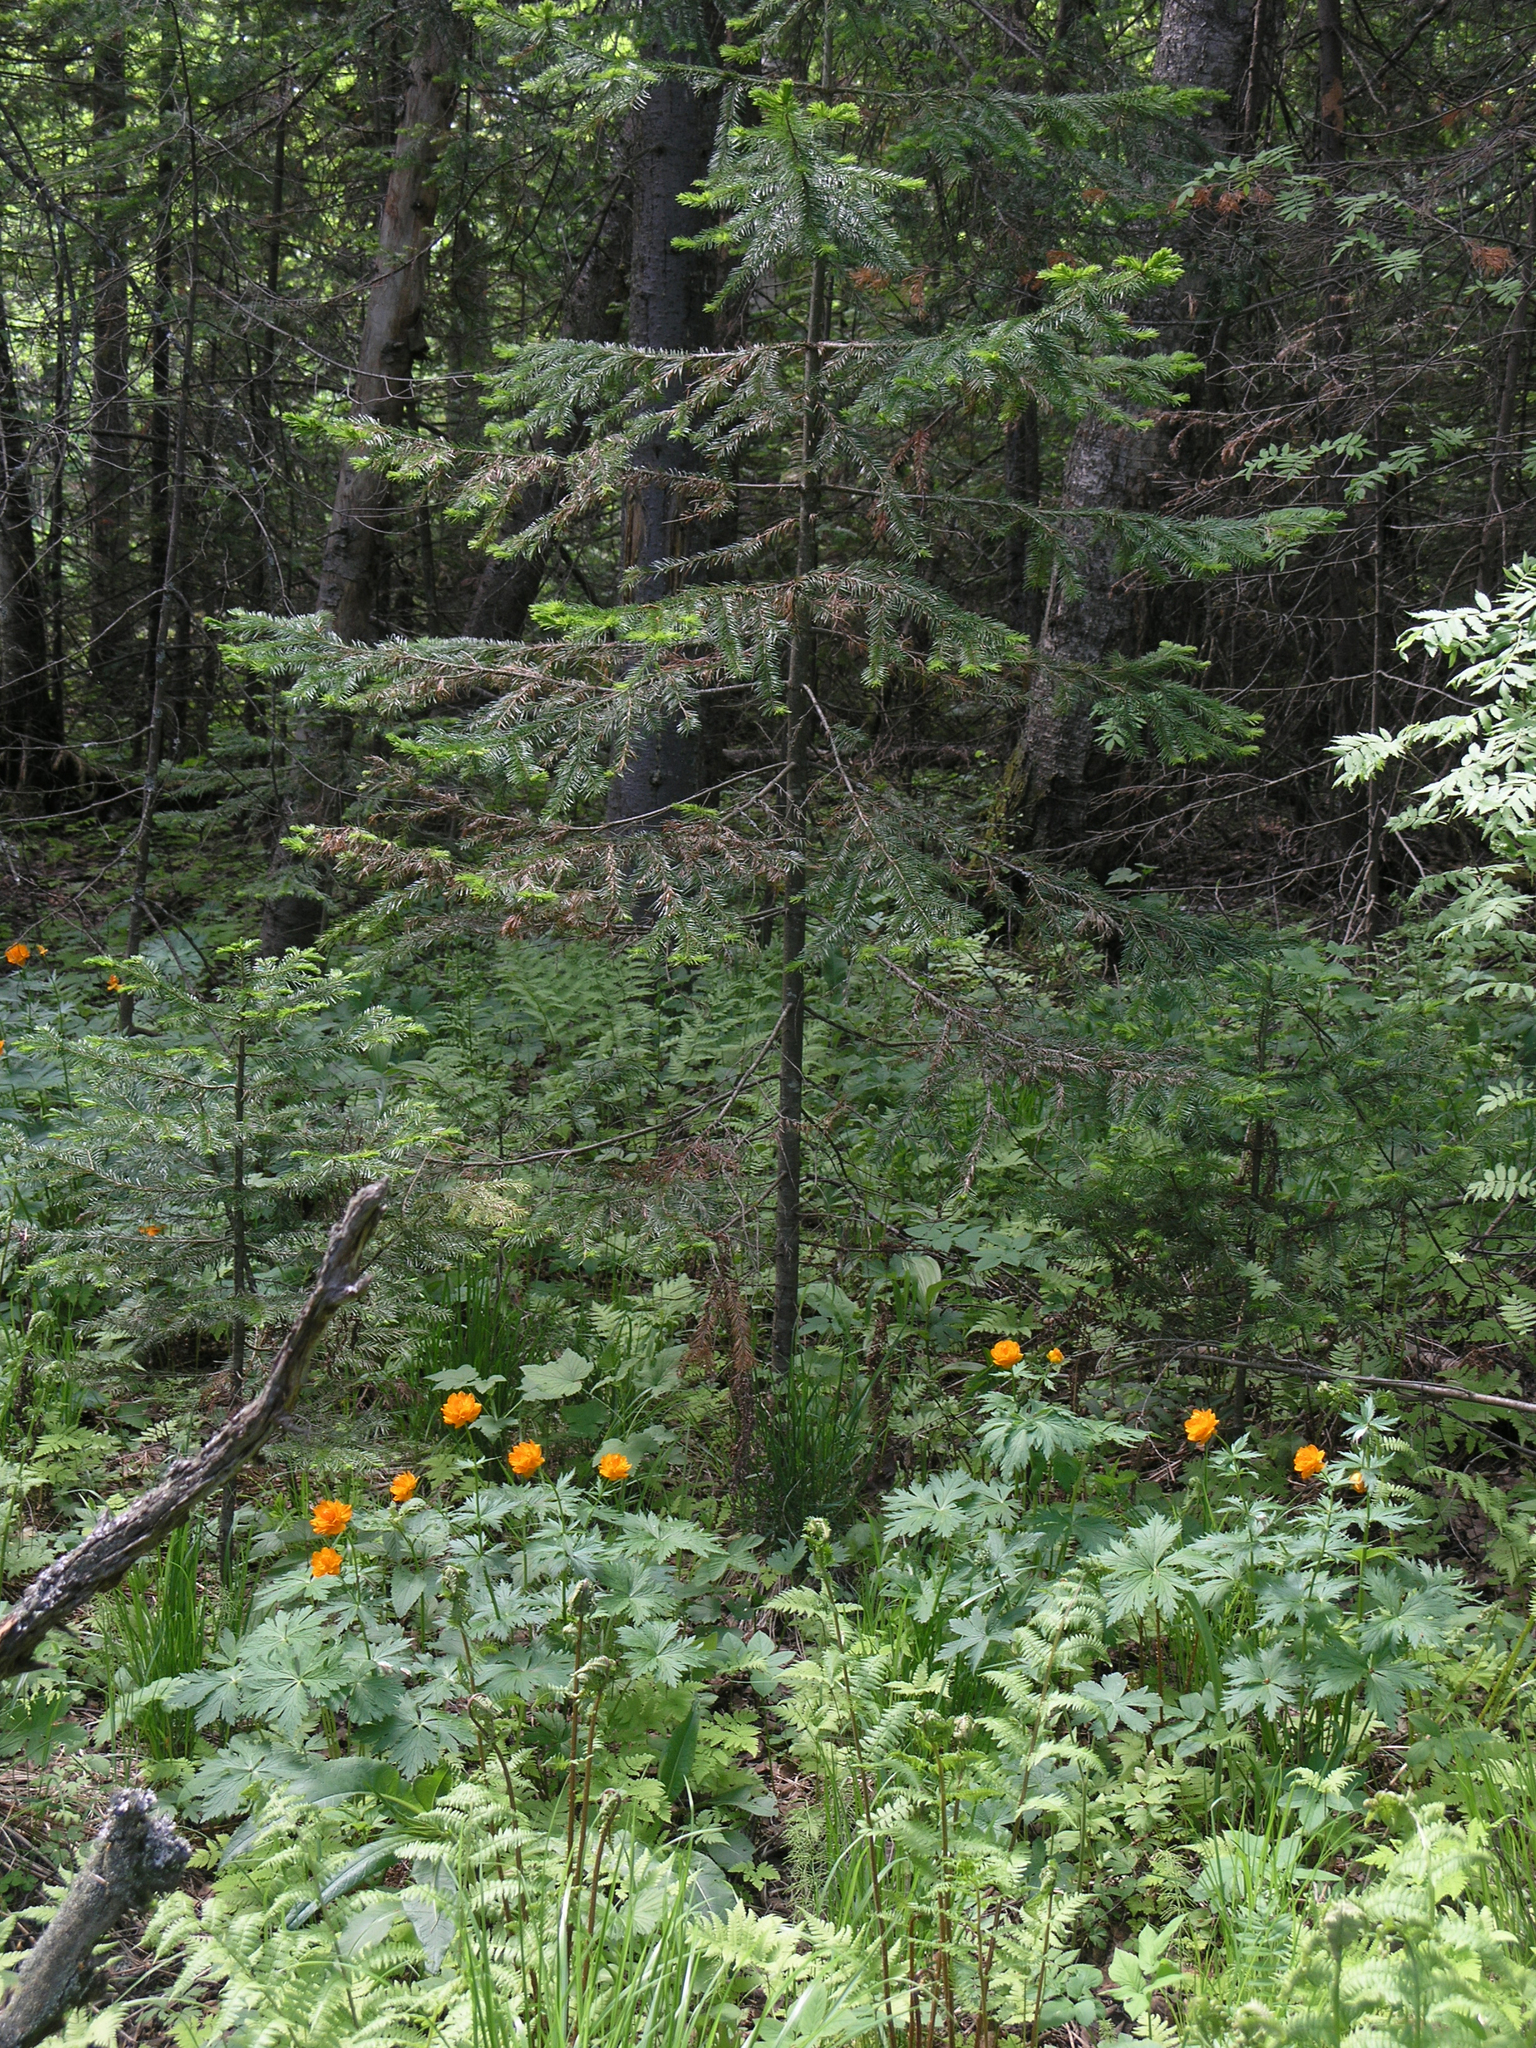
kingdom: Plantae
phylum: Tracheophyta
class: Pinopsida
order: Pinales
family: Pinaceae
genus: Abies
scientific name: Abies sibirica
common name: Siberian fir
